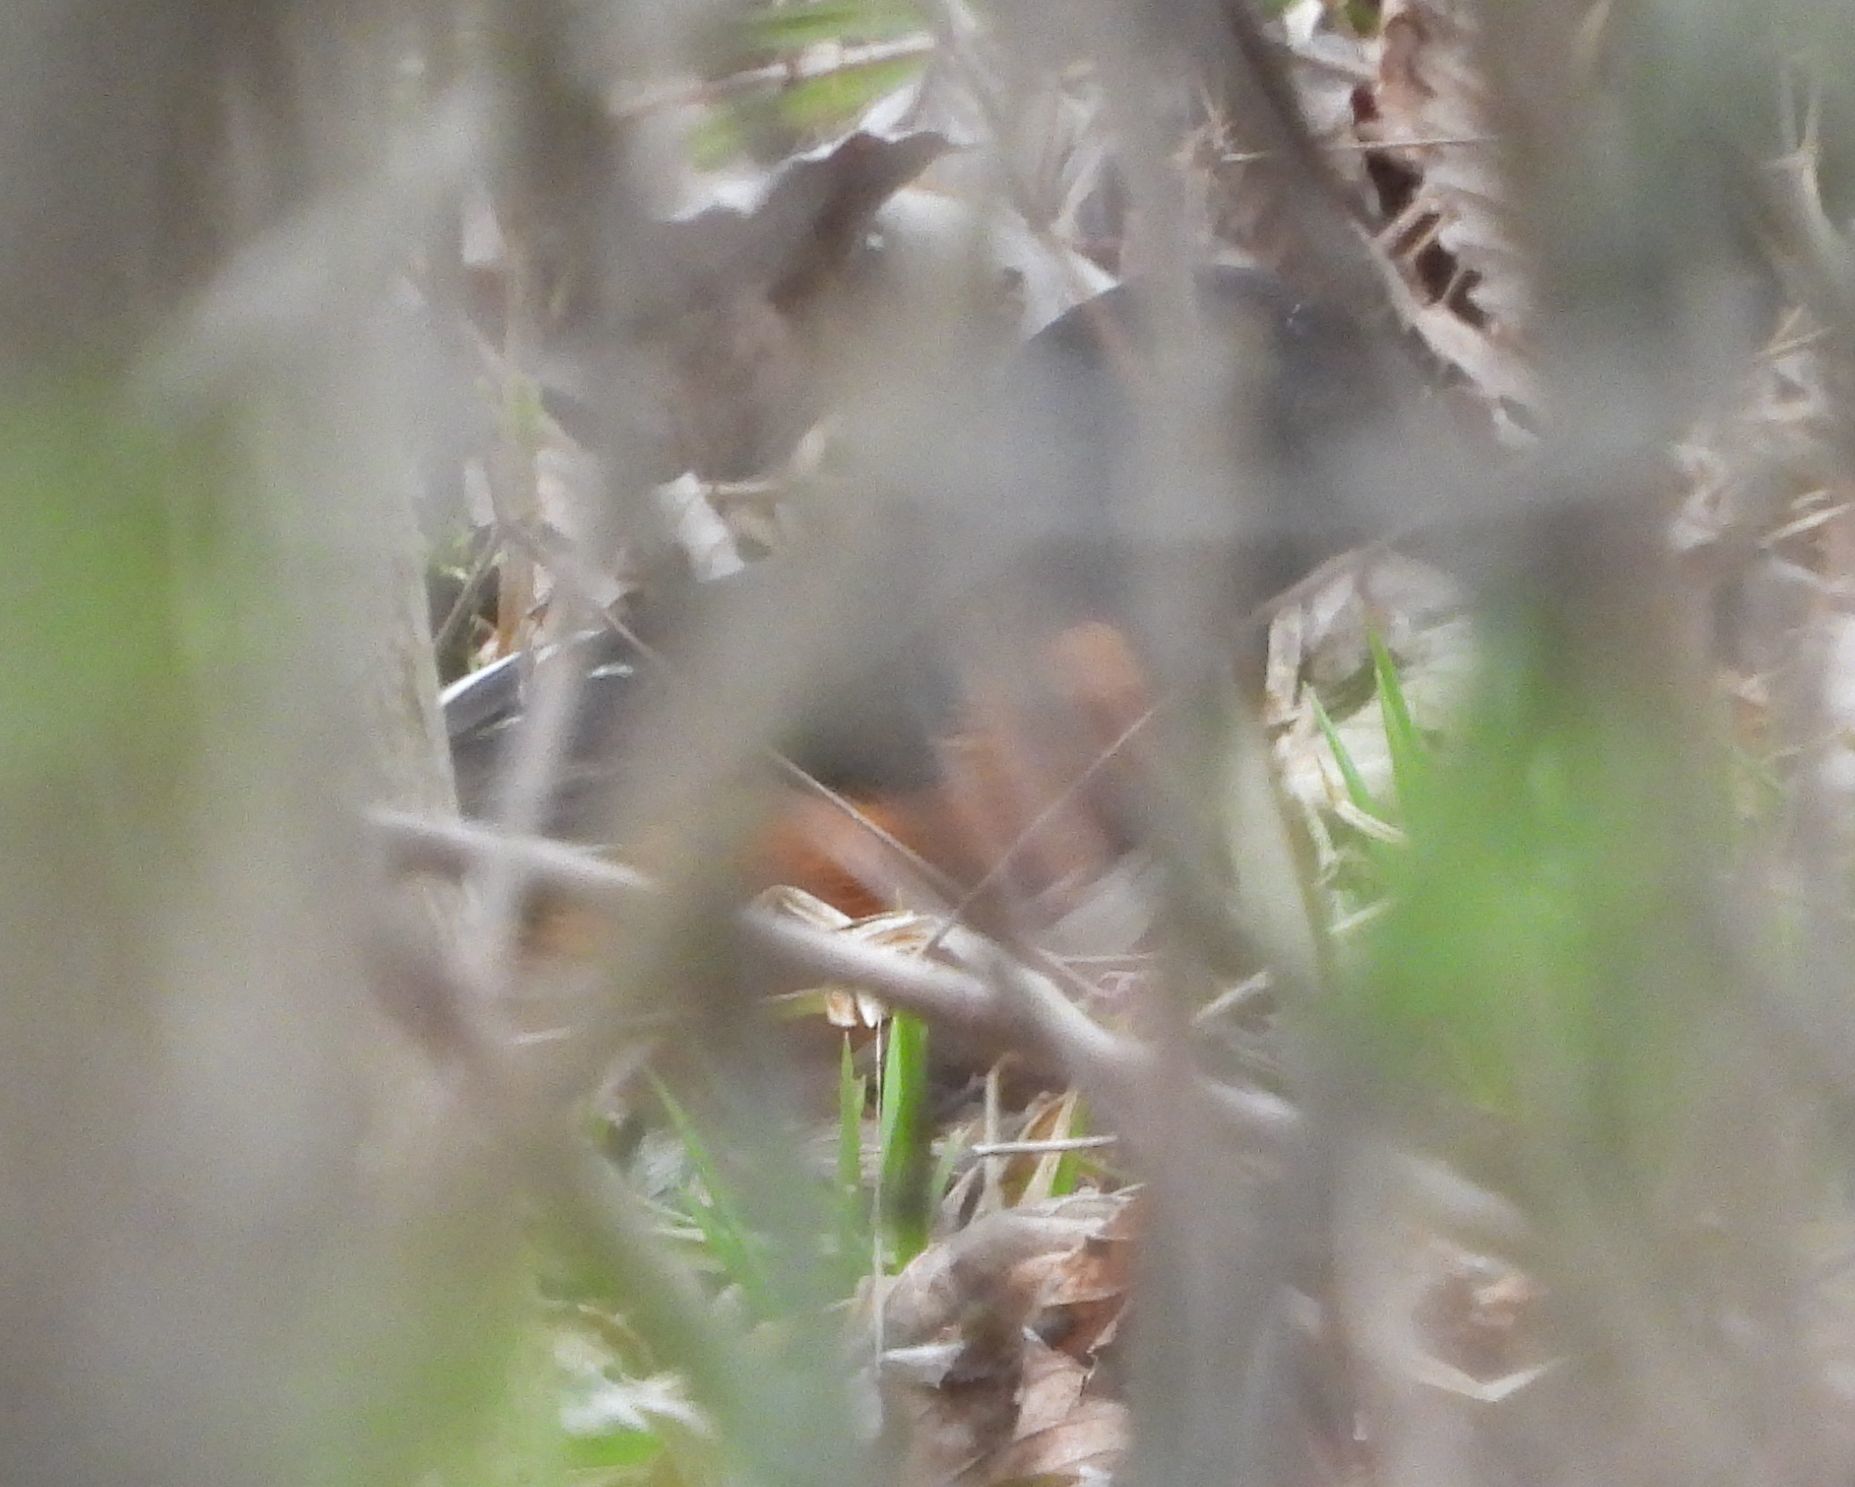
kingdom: Animalia
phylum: Chordata
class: Aves
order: Passeriformes
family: Passerellidae
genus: Pipilo
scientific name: Pipilo erythrophthalmus
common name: Eastern towhee
